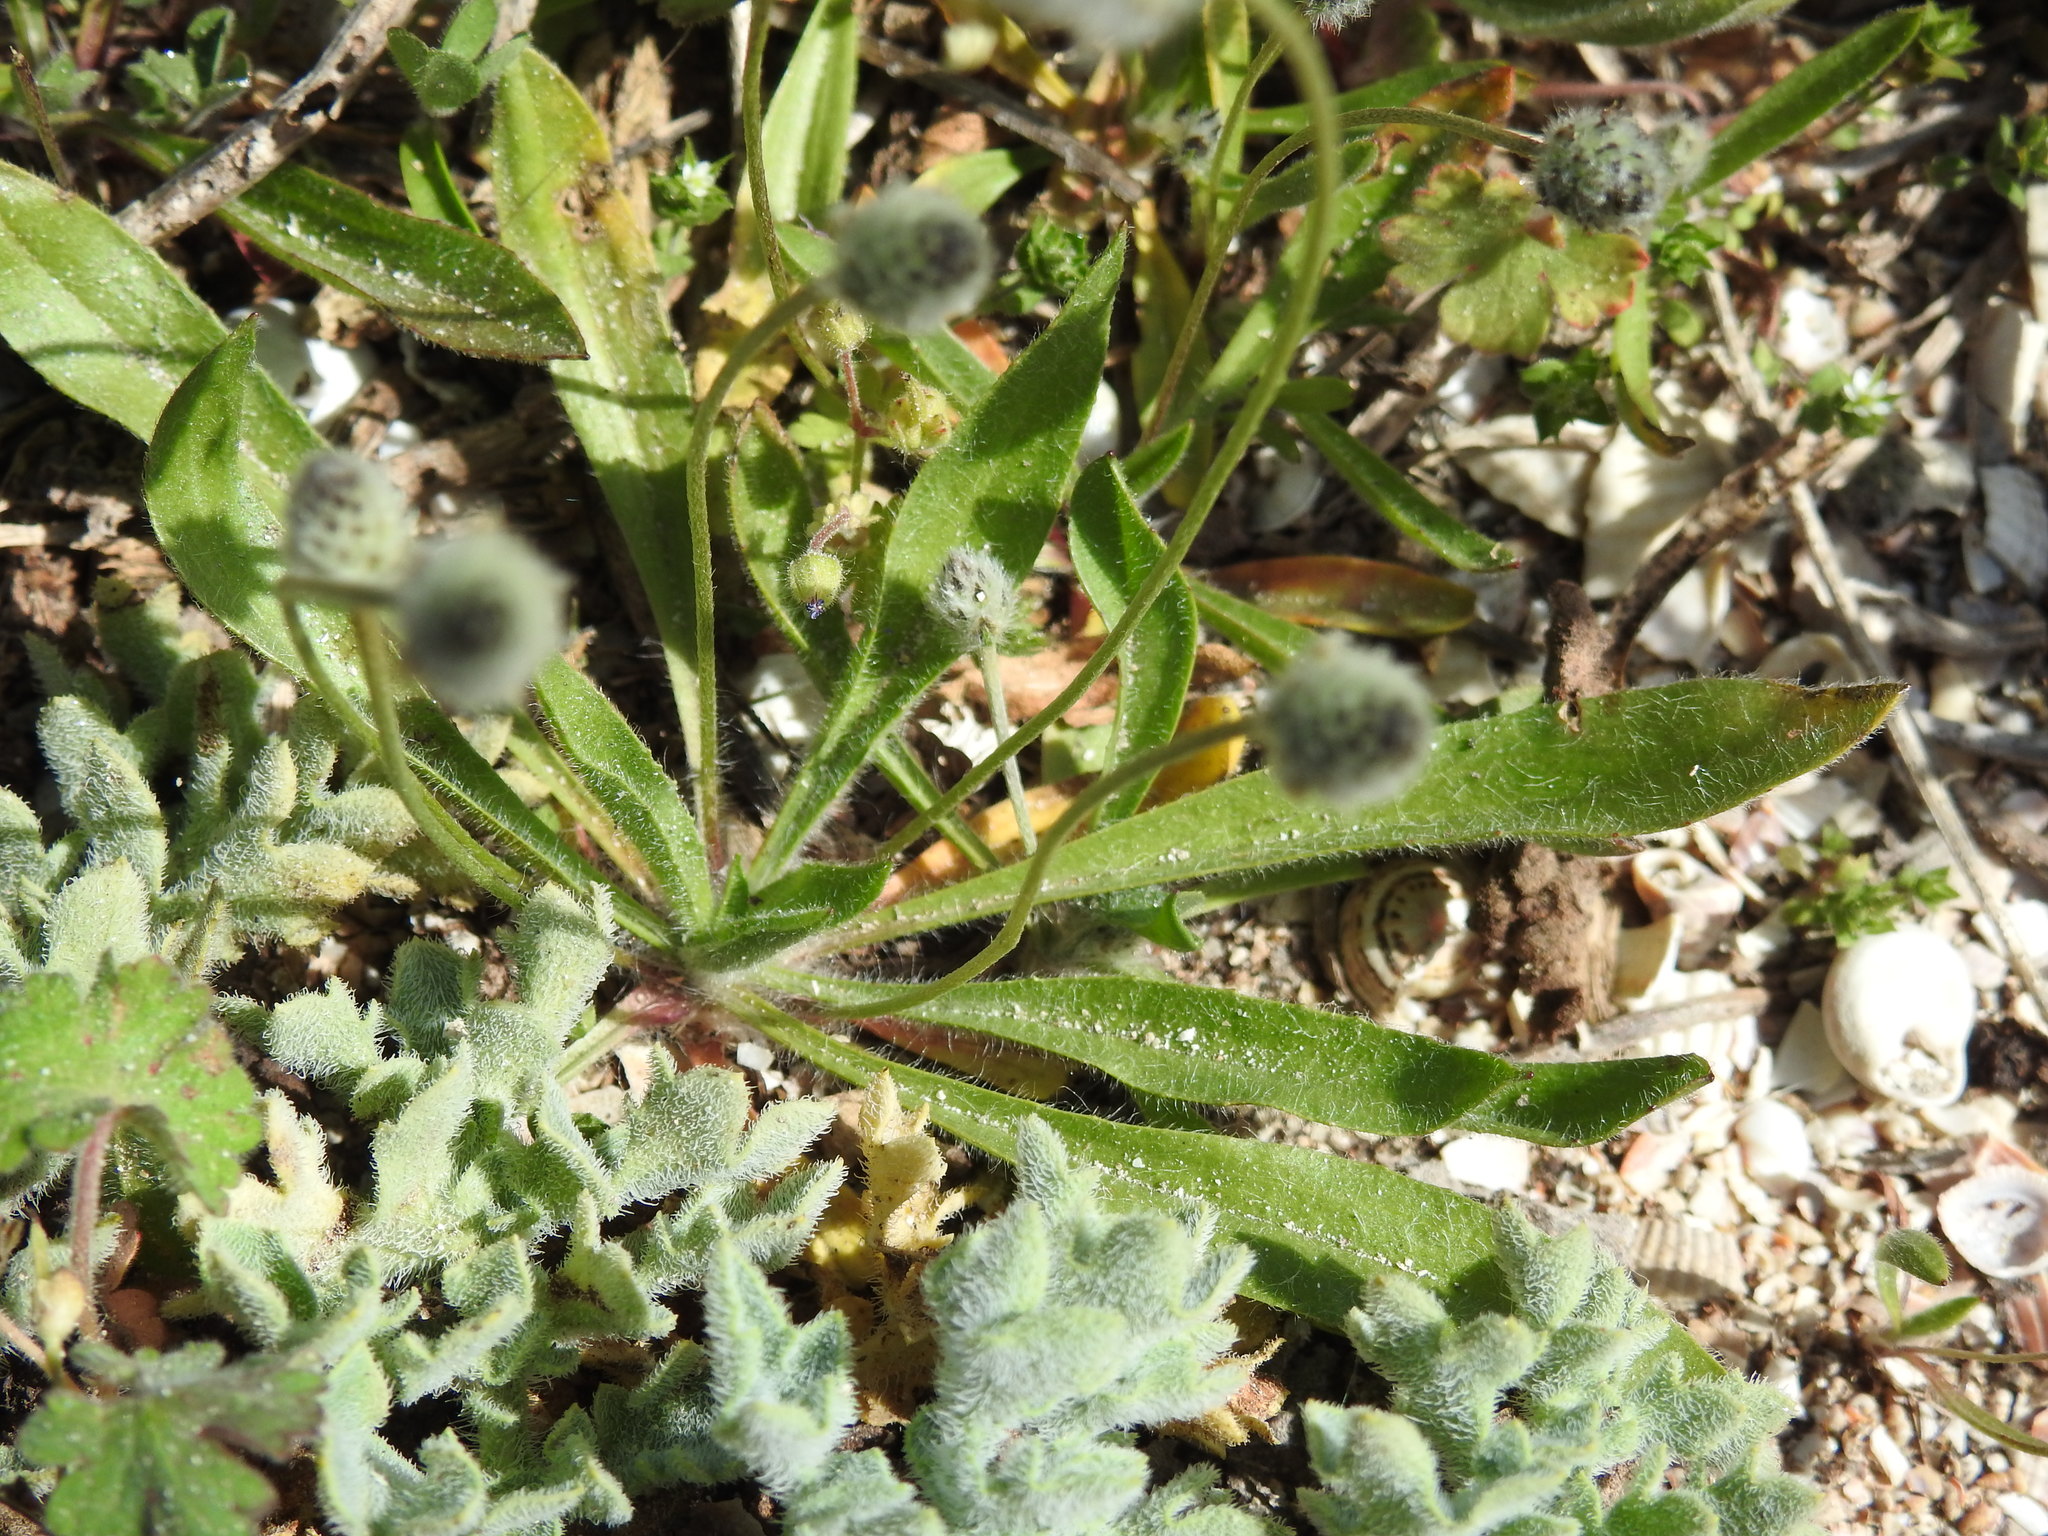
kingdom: Plantae
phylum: Tracheophyta
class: Magnoliopsida
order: Lamiales
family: Plantaginaceae
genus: Plantago
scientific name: Plantago lagopus
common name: Hare-foot plantain
